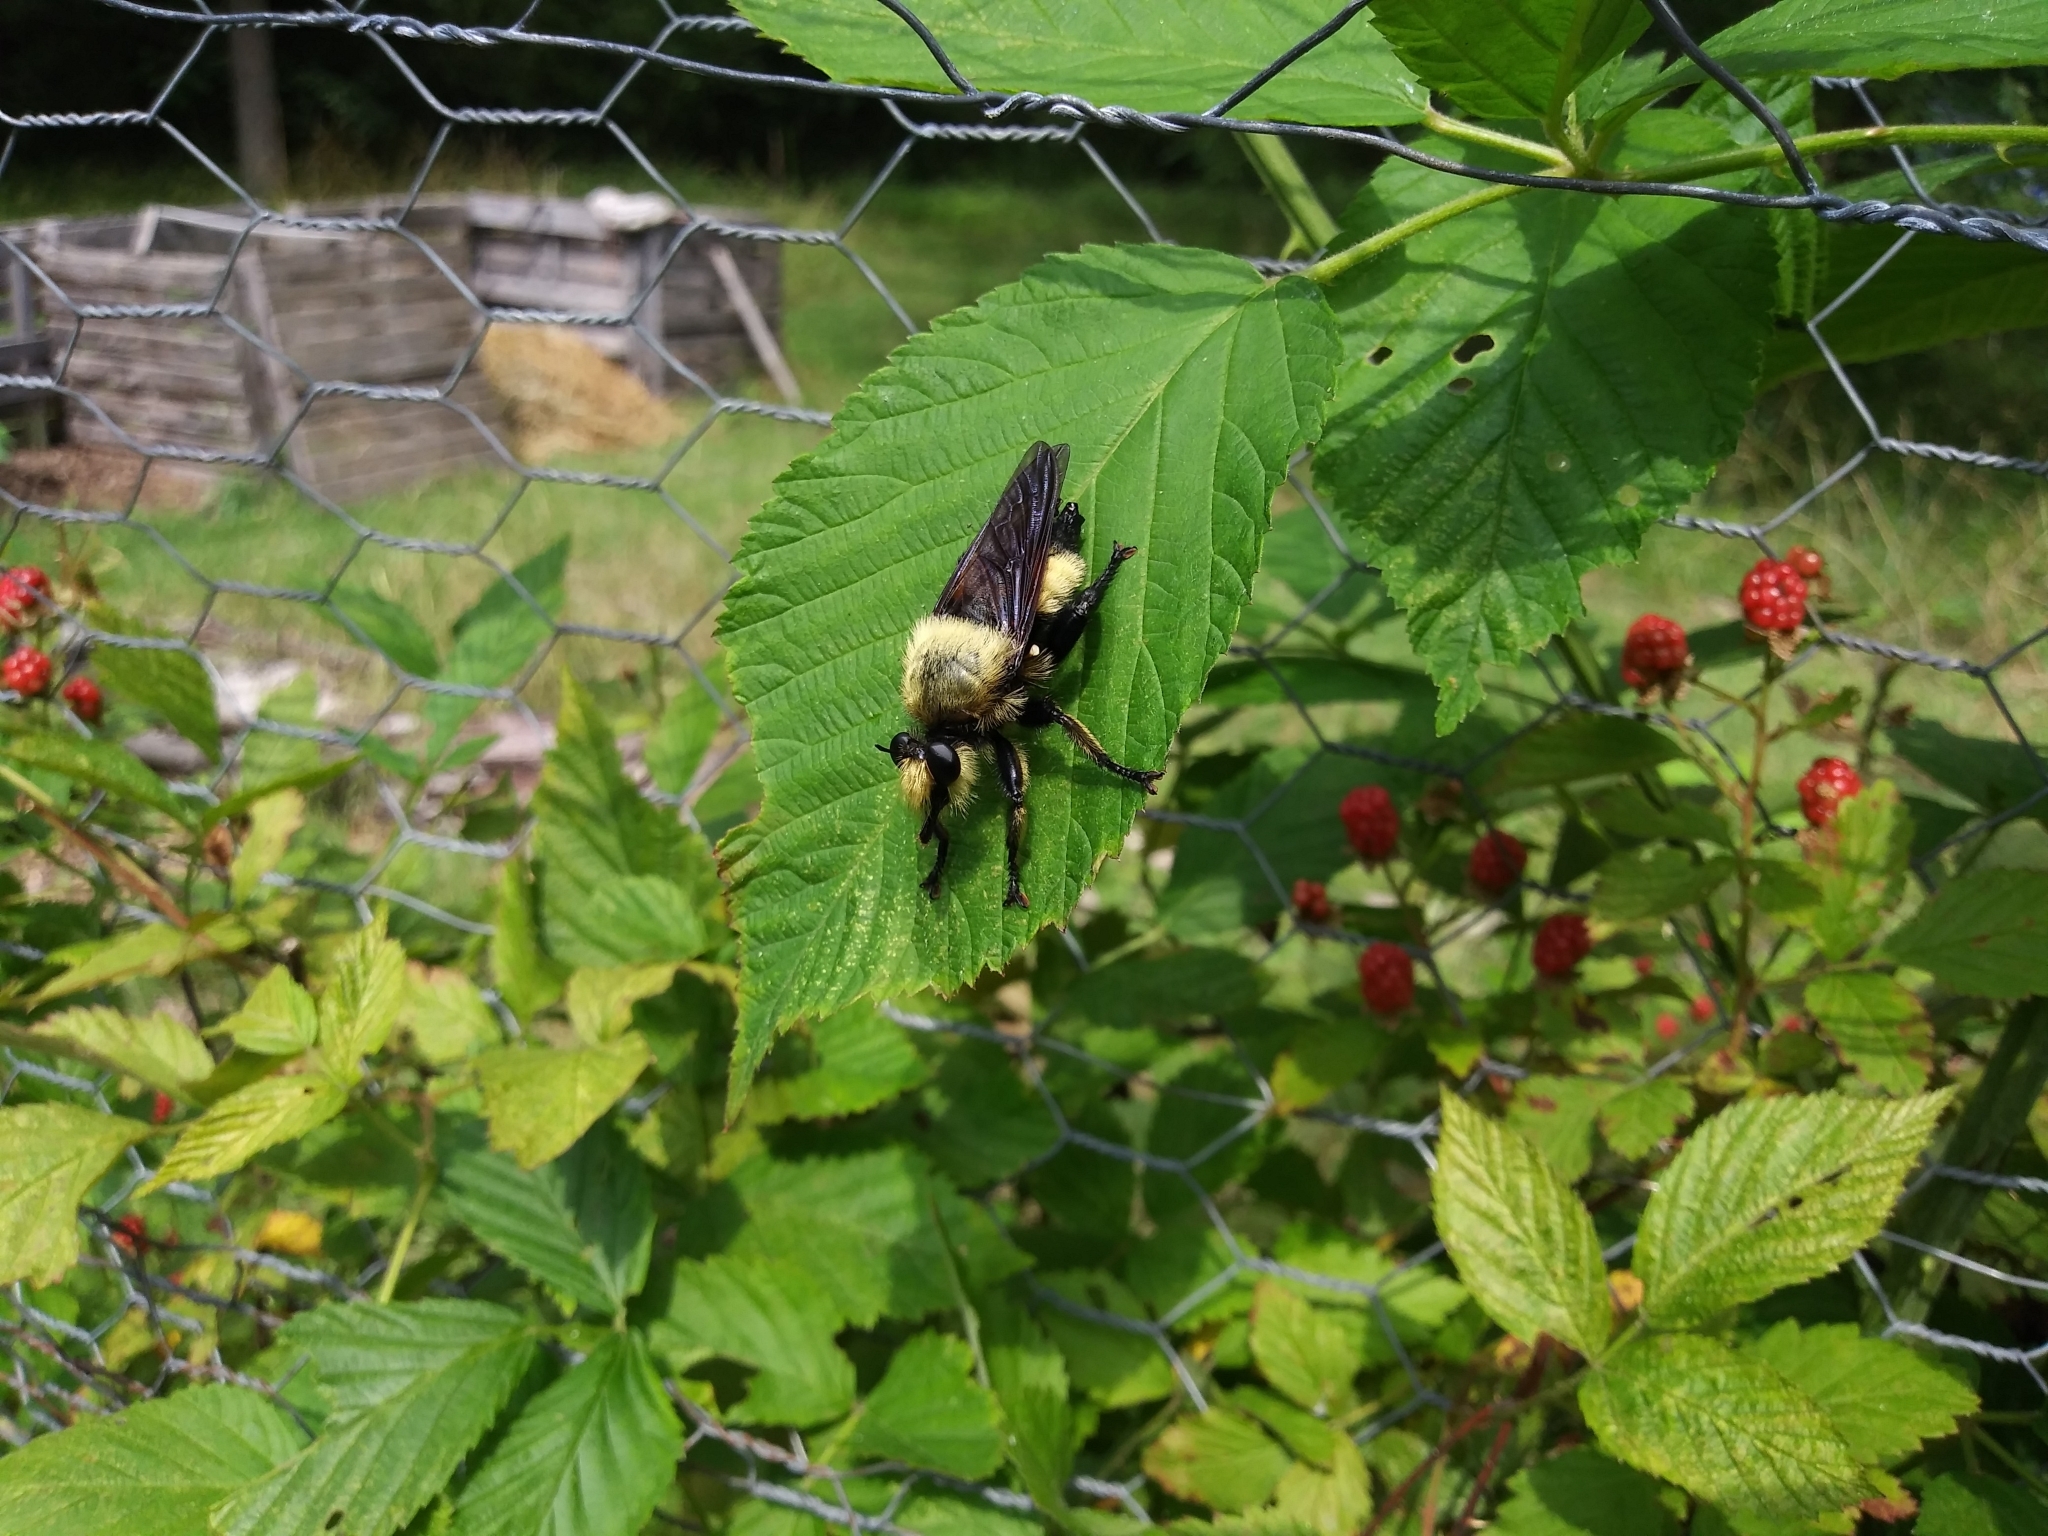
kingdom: Animalia
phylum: Arthropoda
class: Insecta
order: Diptera
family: Asilidae
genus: Laphria
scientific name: Laphria grossa
